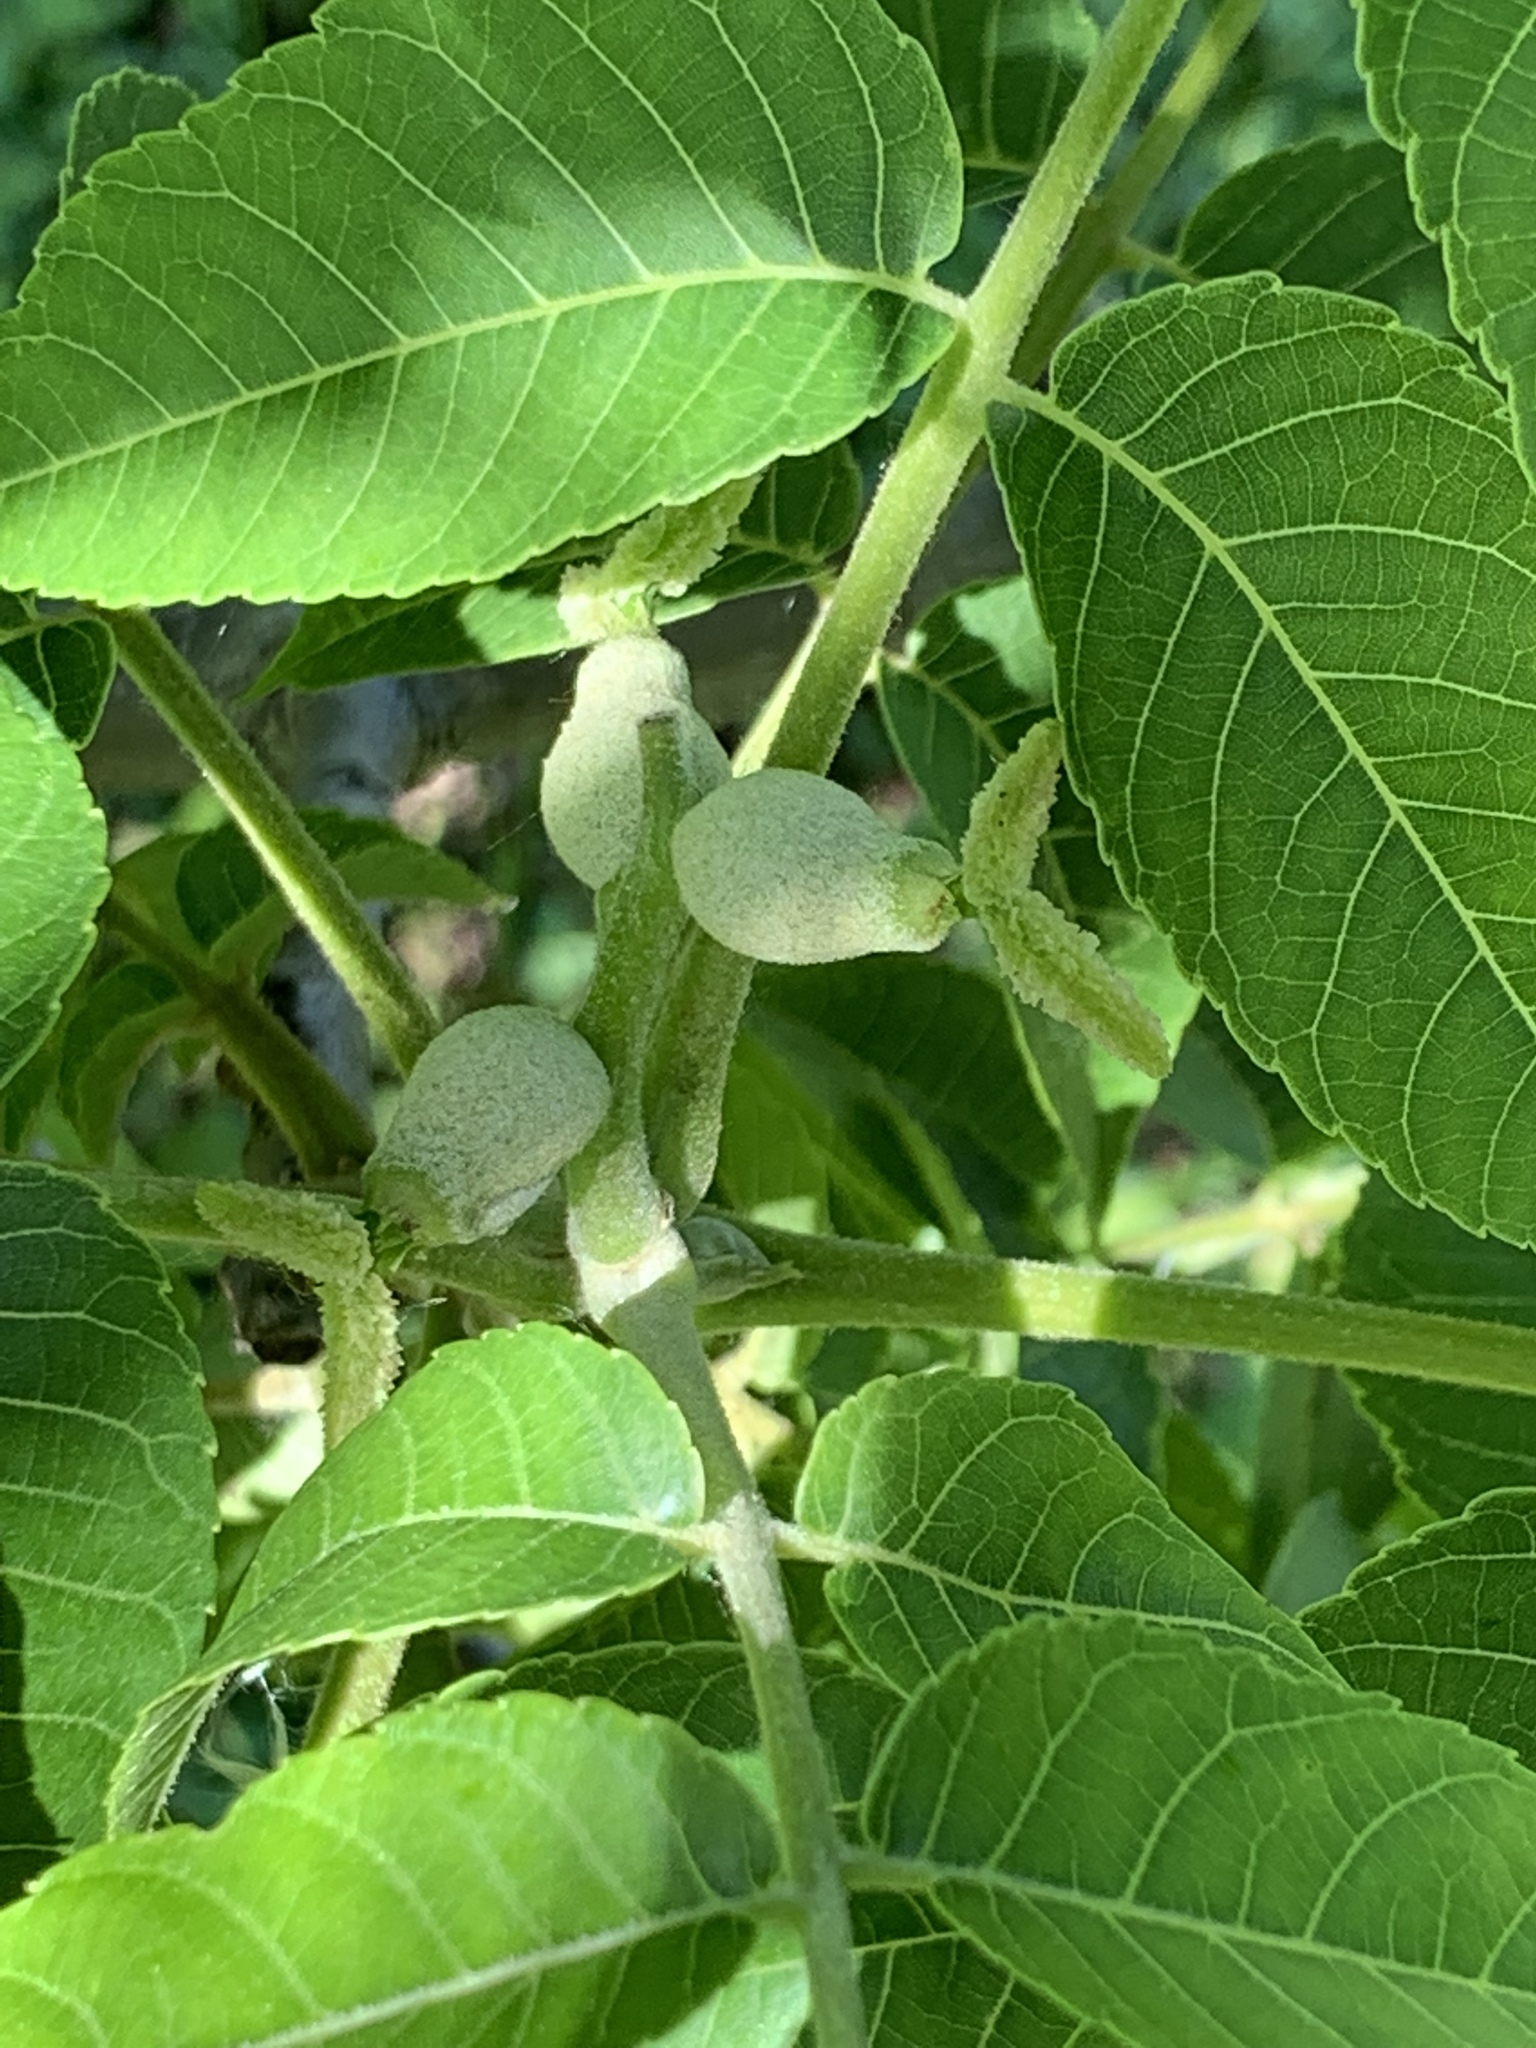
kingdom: Plantae
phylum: Tracheophyta
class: Magnoliopsida
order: Fagales
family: Juglandaceae
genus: Juglans
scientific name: Juglans nigra
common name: Black walnut
